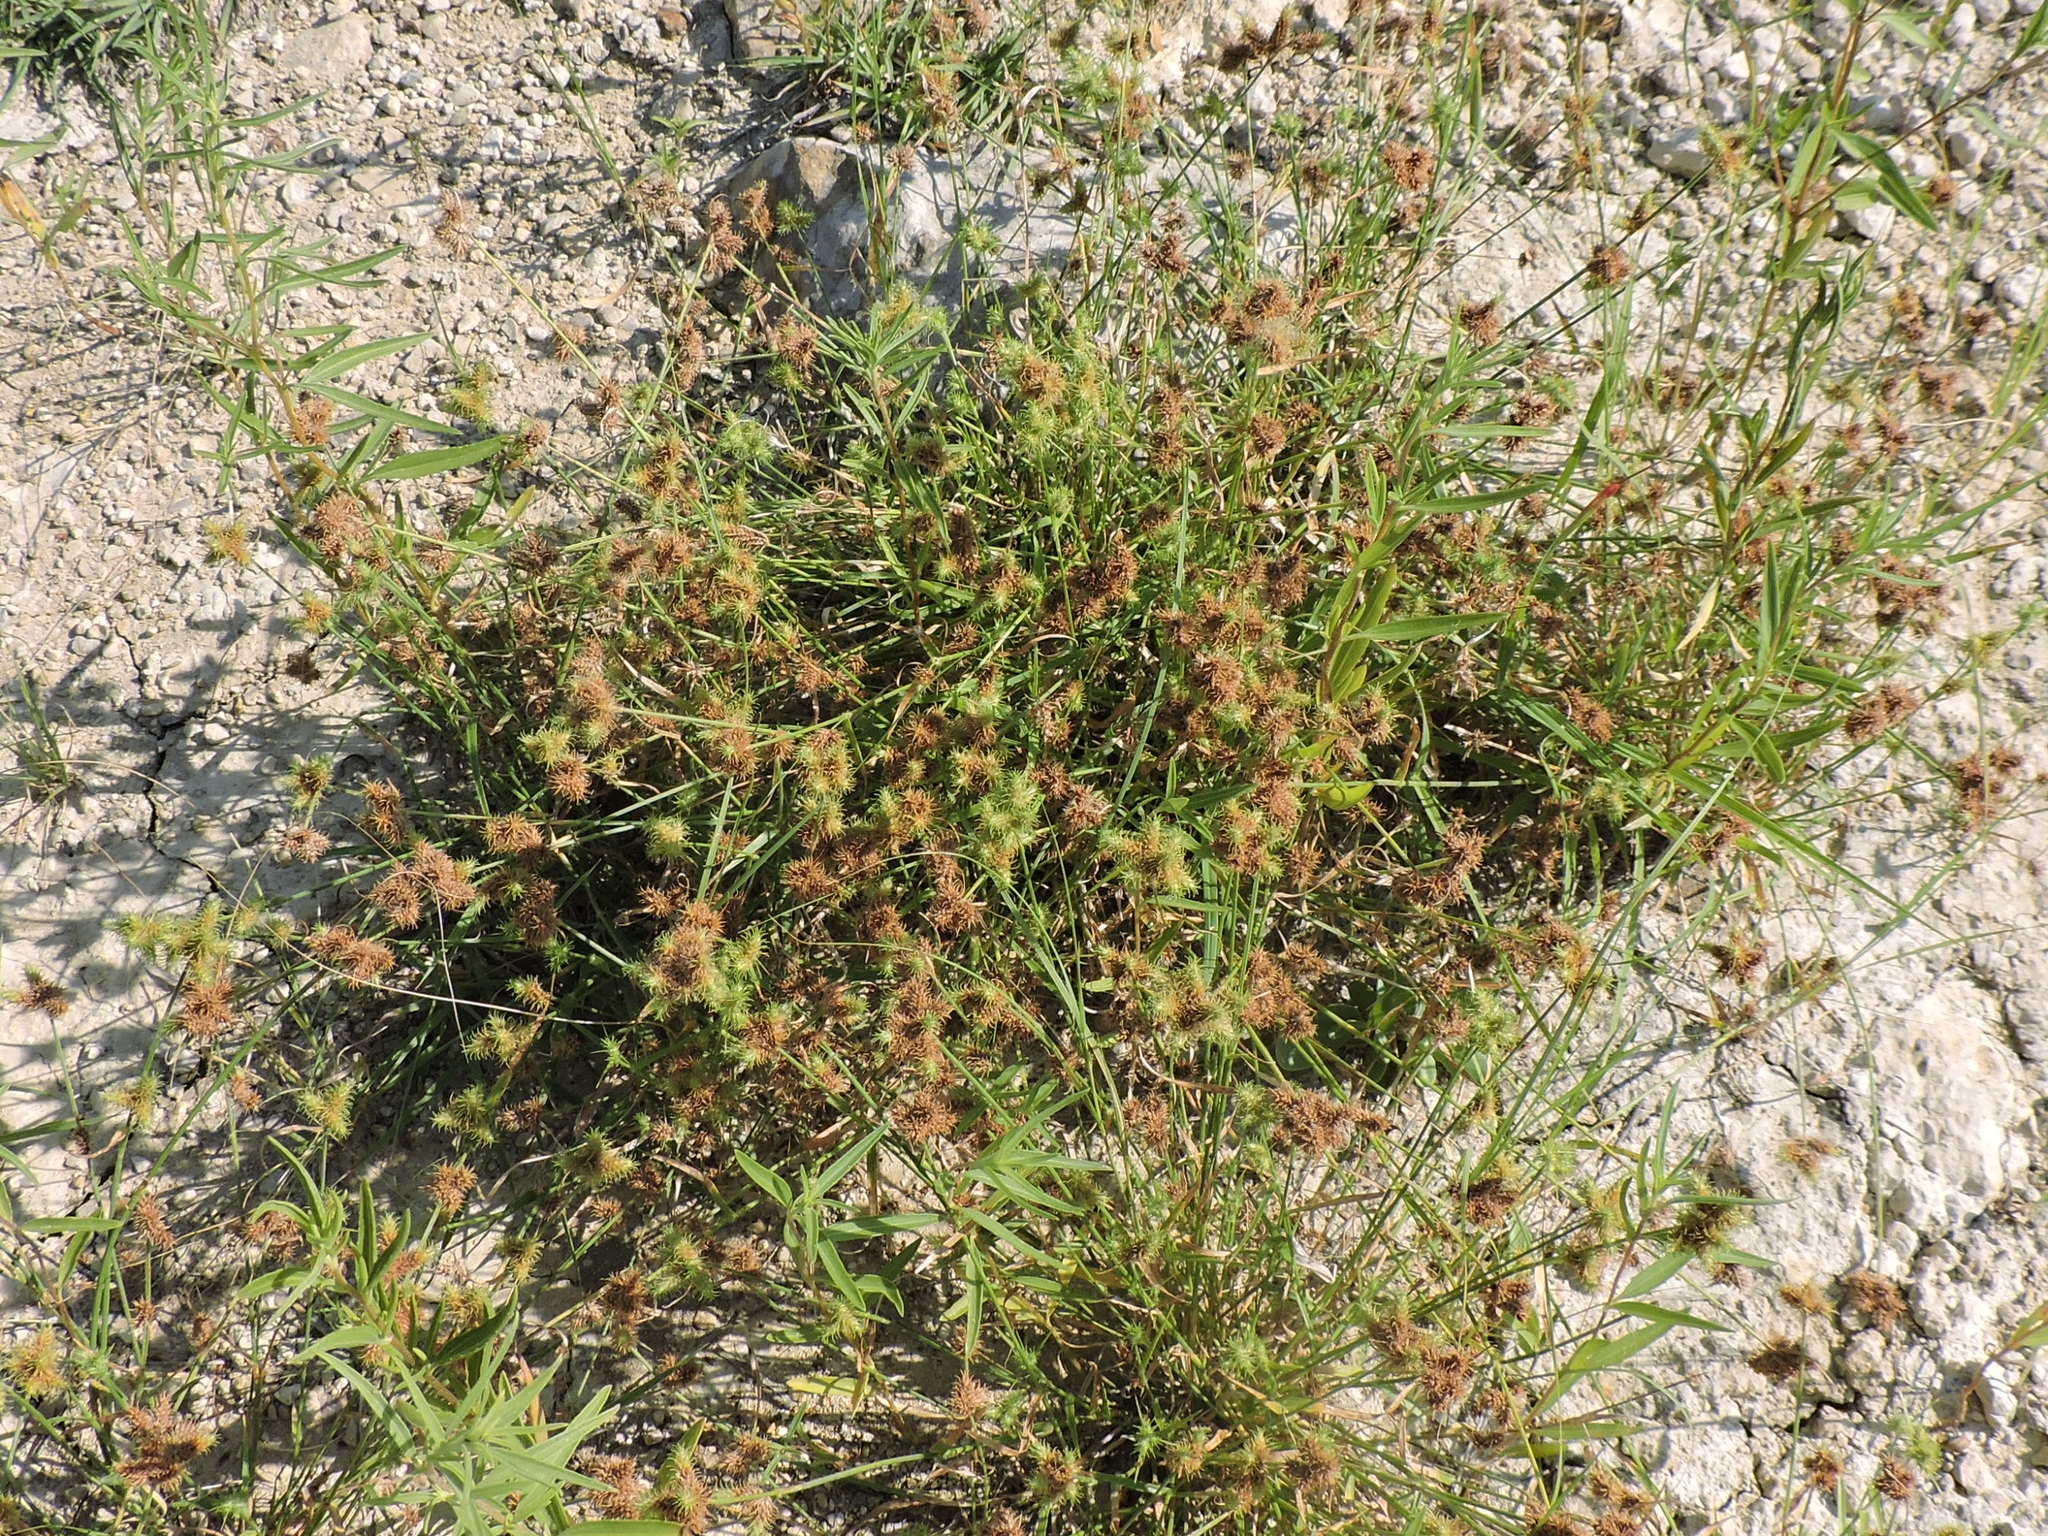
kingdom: Plantae
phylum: Tracheophyta
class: Liliopsida
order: Poales
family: Cyperaceae
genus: Fuirena
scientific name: Fuirena simplex
